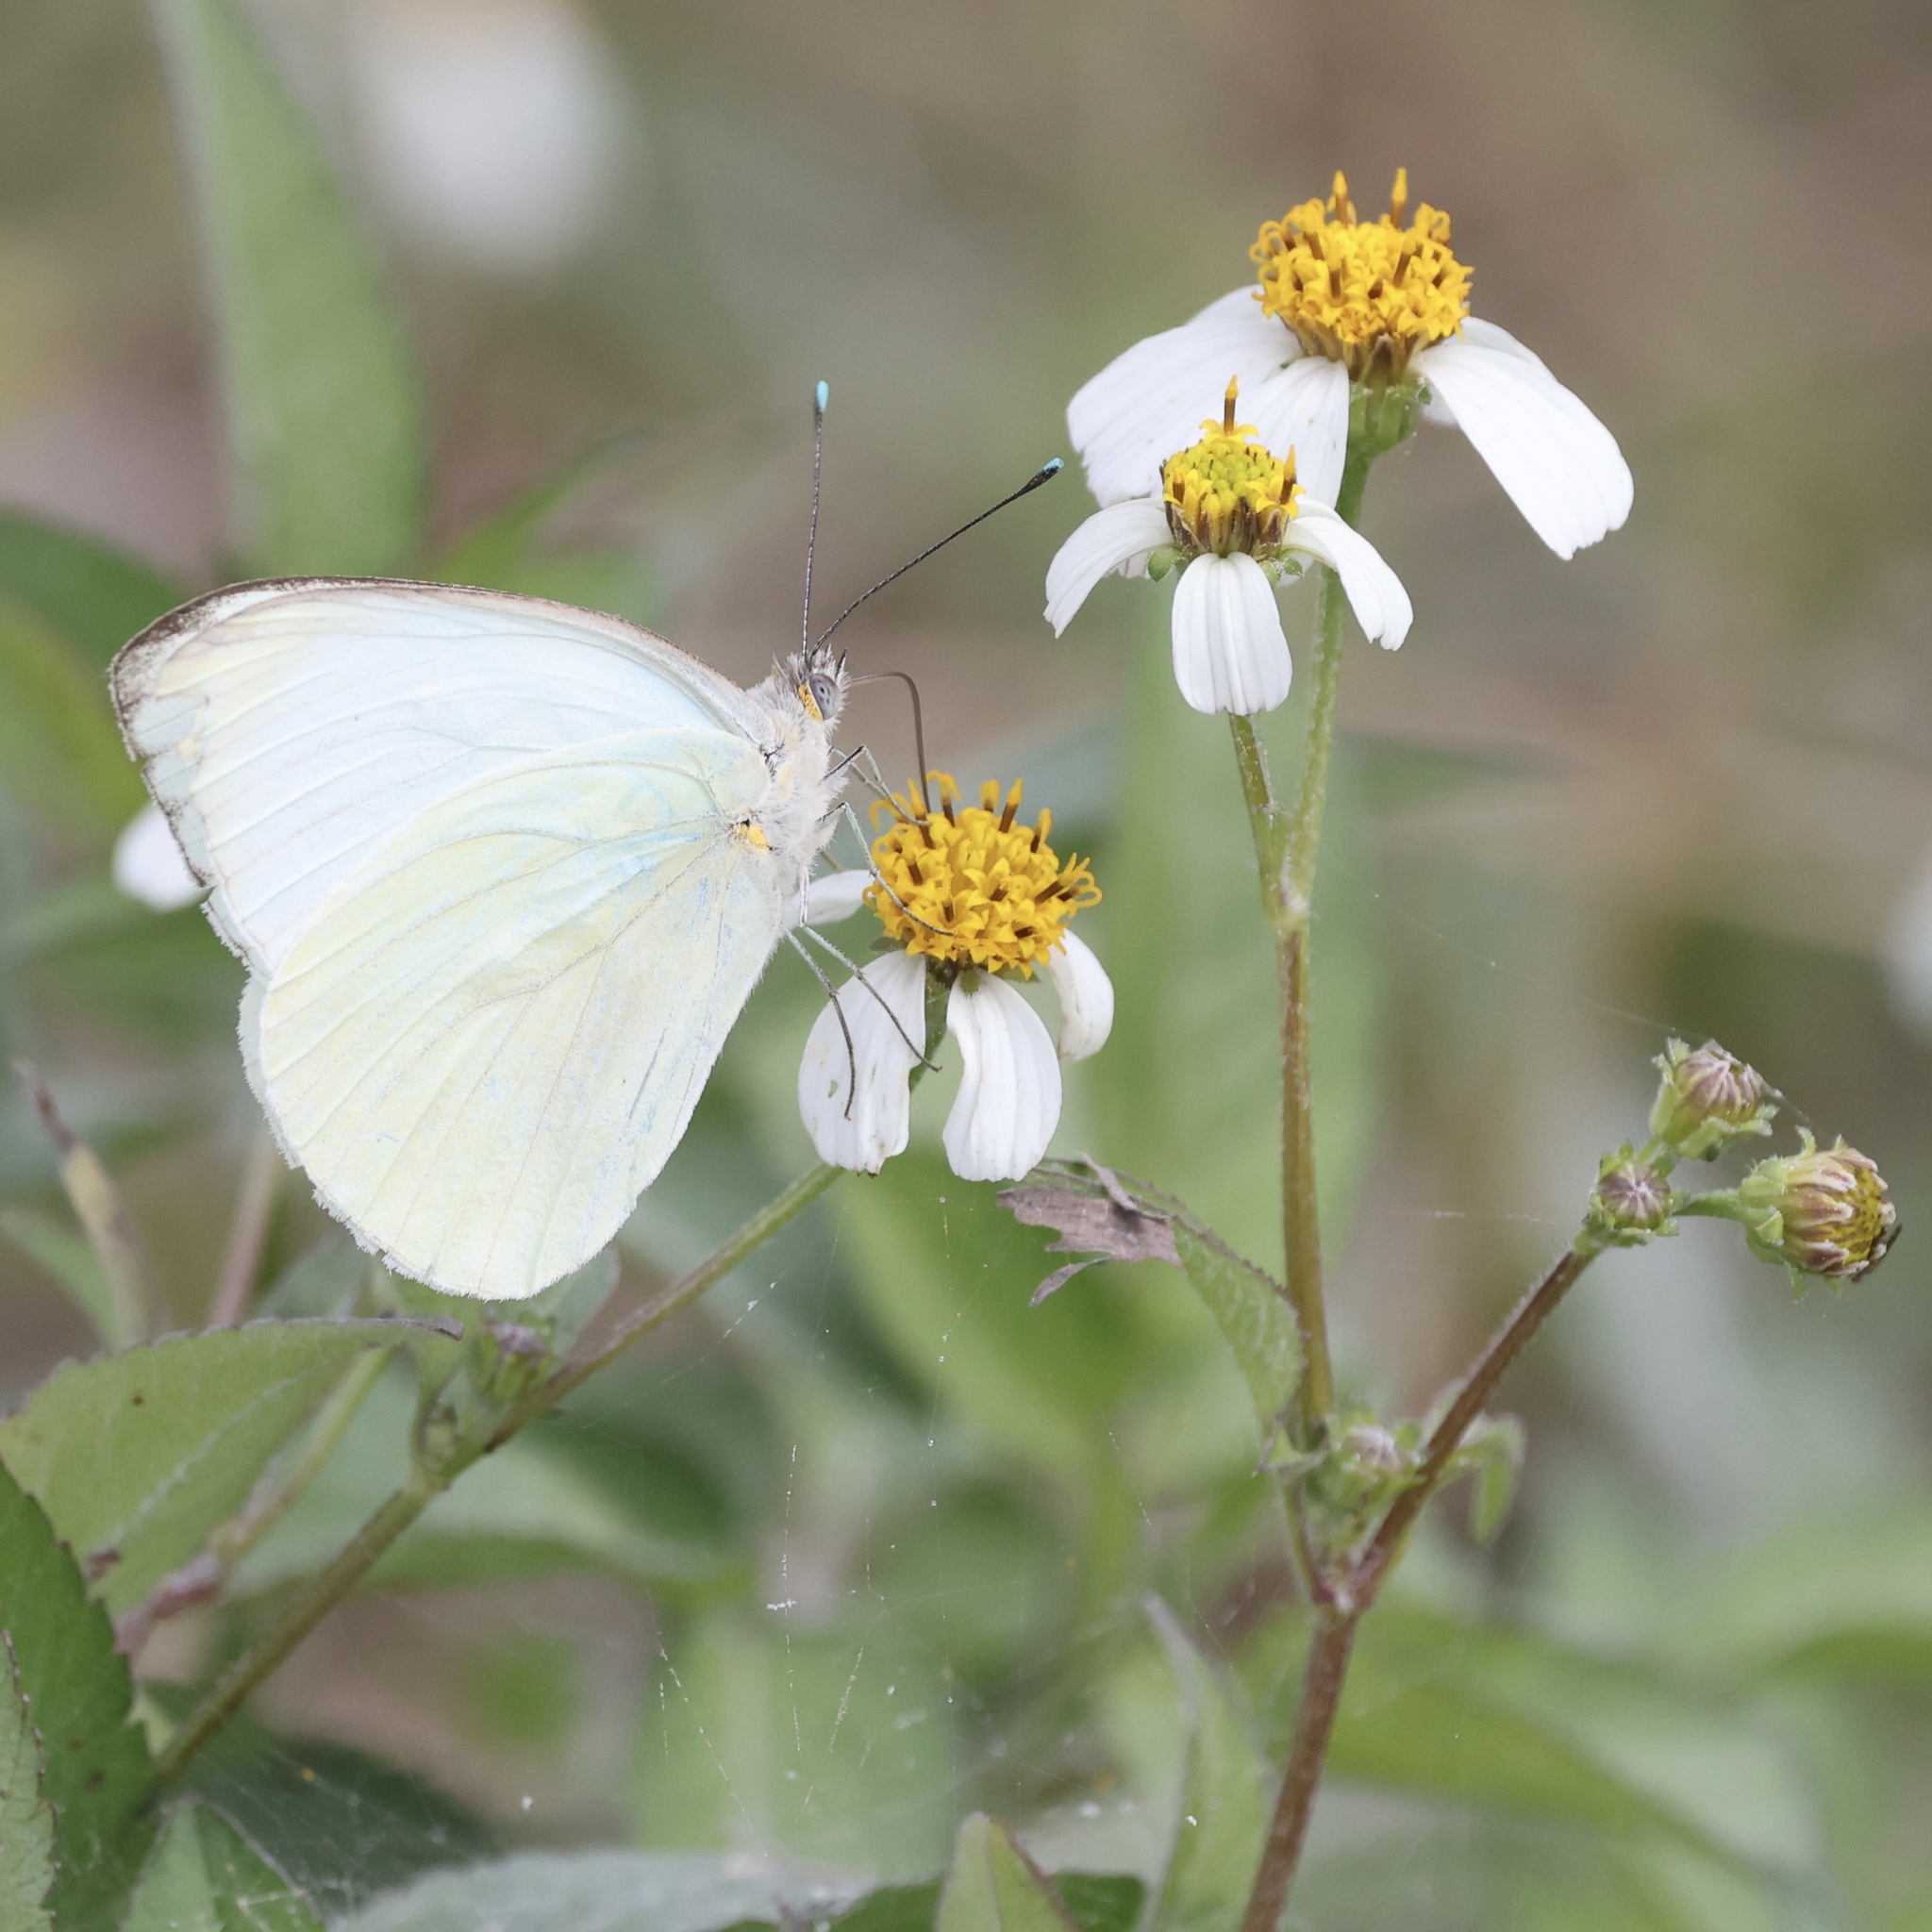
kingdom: Animalia
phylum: Arthropoda
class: Insecta
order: Lepidoptera
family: Pieridae
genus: Ascia
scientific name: Ascia monuste
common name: Great southern white
